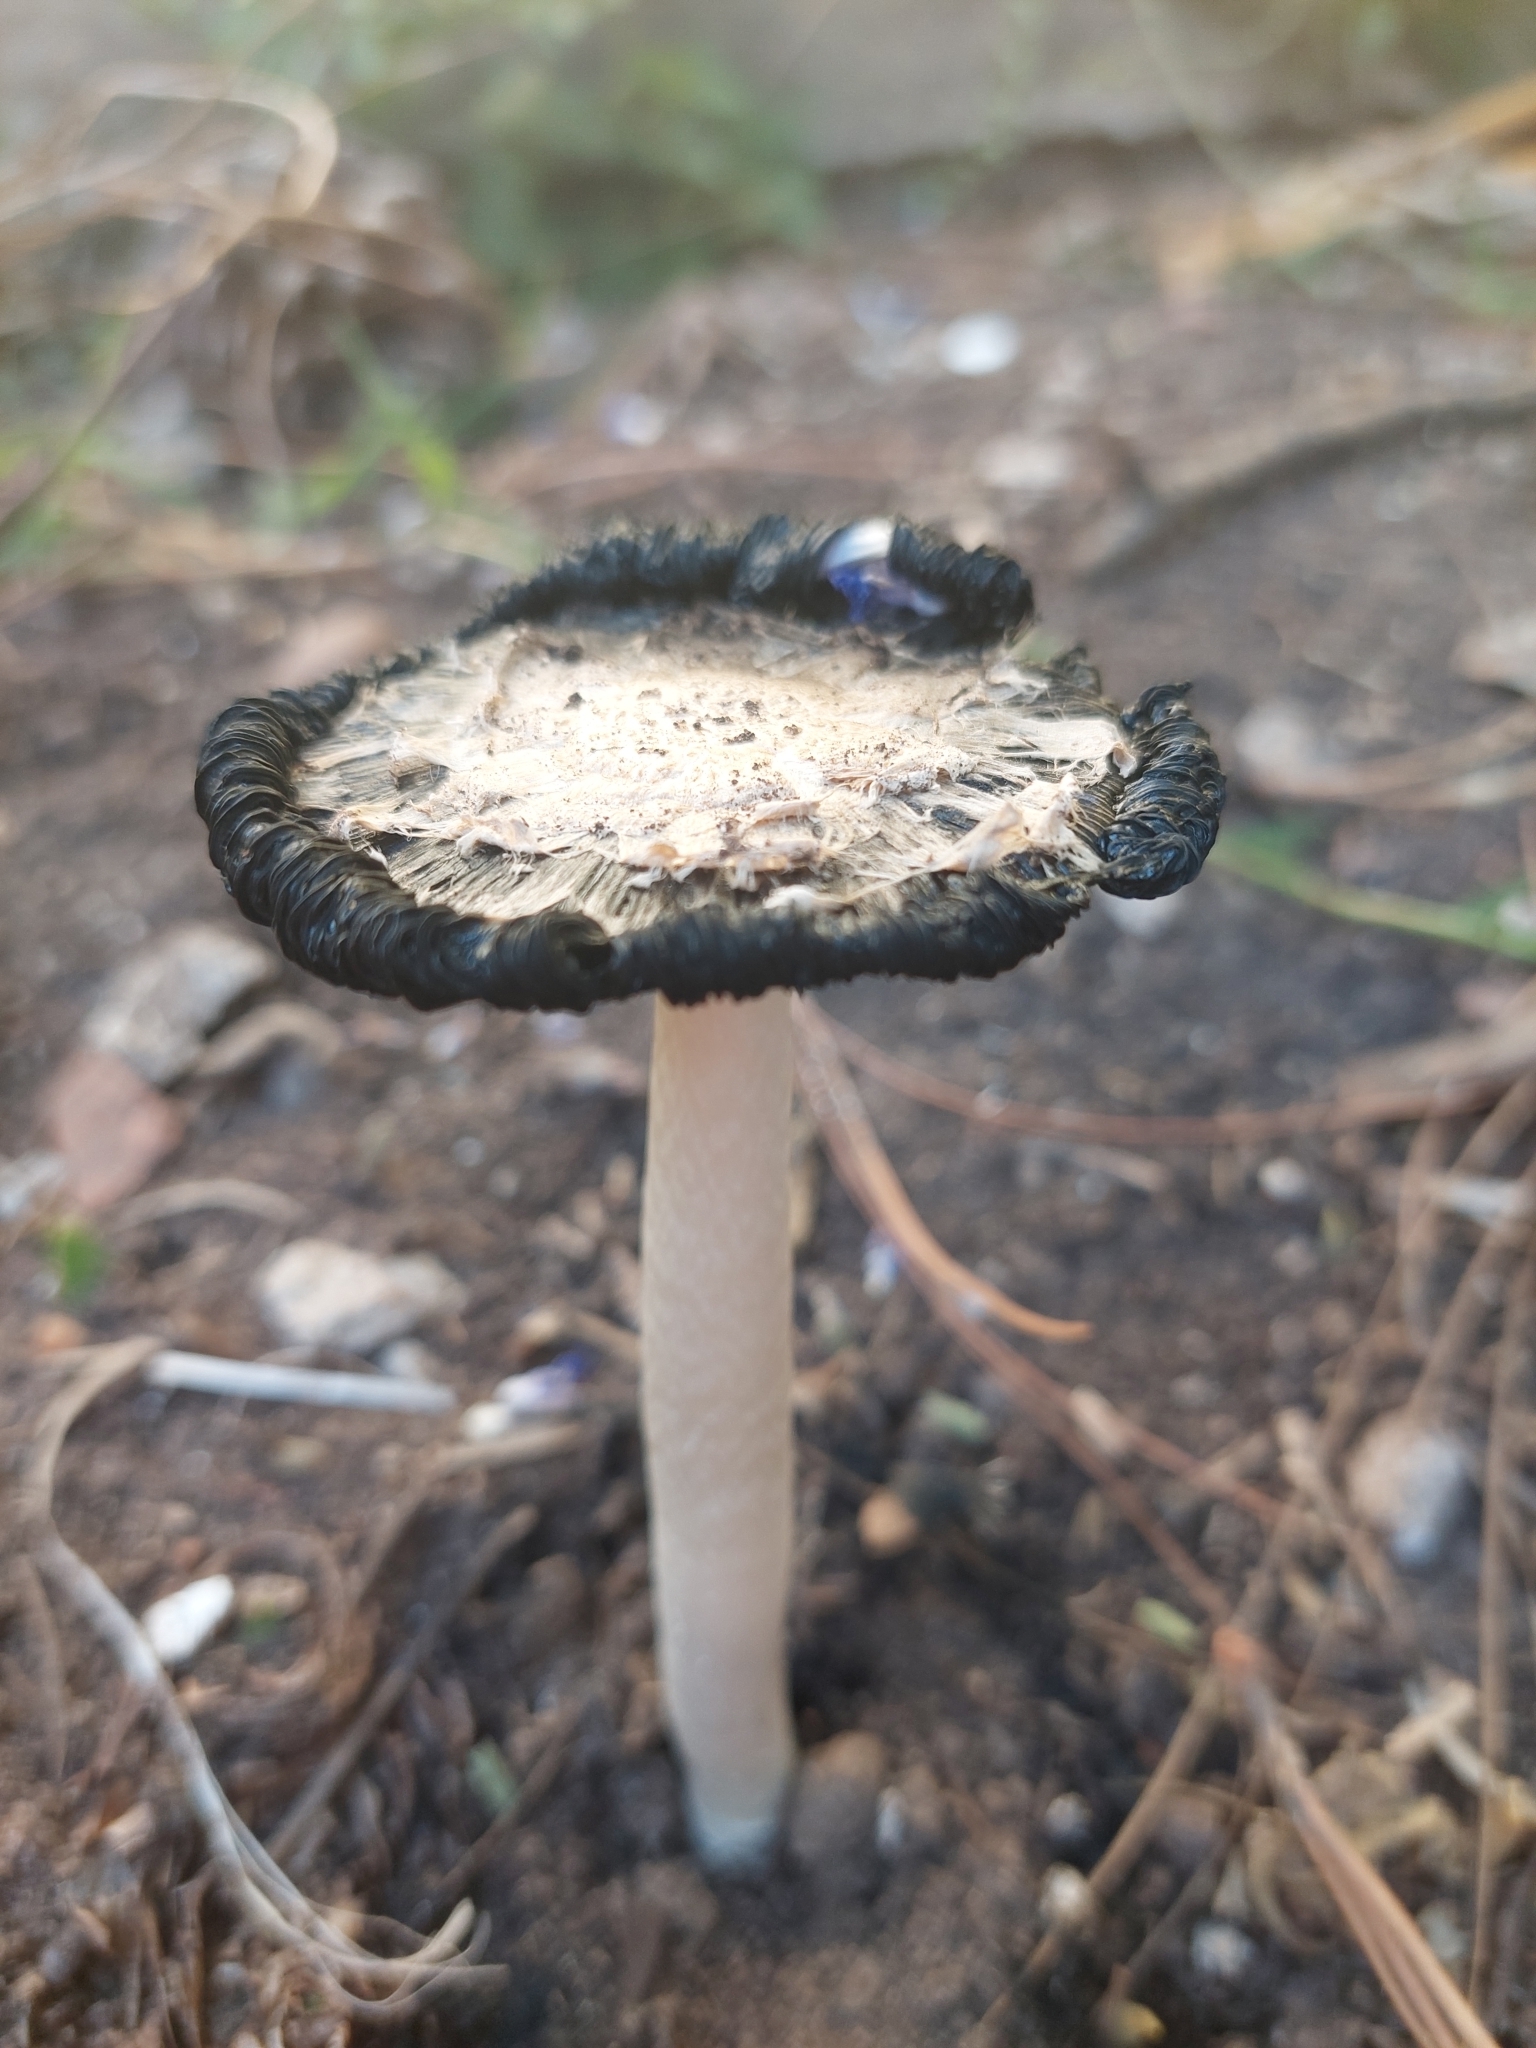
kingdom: Fungi
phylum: Basidiomycota
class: Agaricomycetes
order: Agaricales
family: Agaricaceae
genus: Coprinus
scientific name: Coprinus comatus
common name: Lawyer's wig
